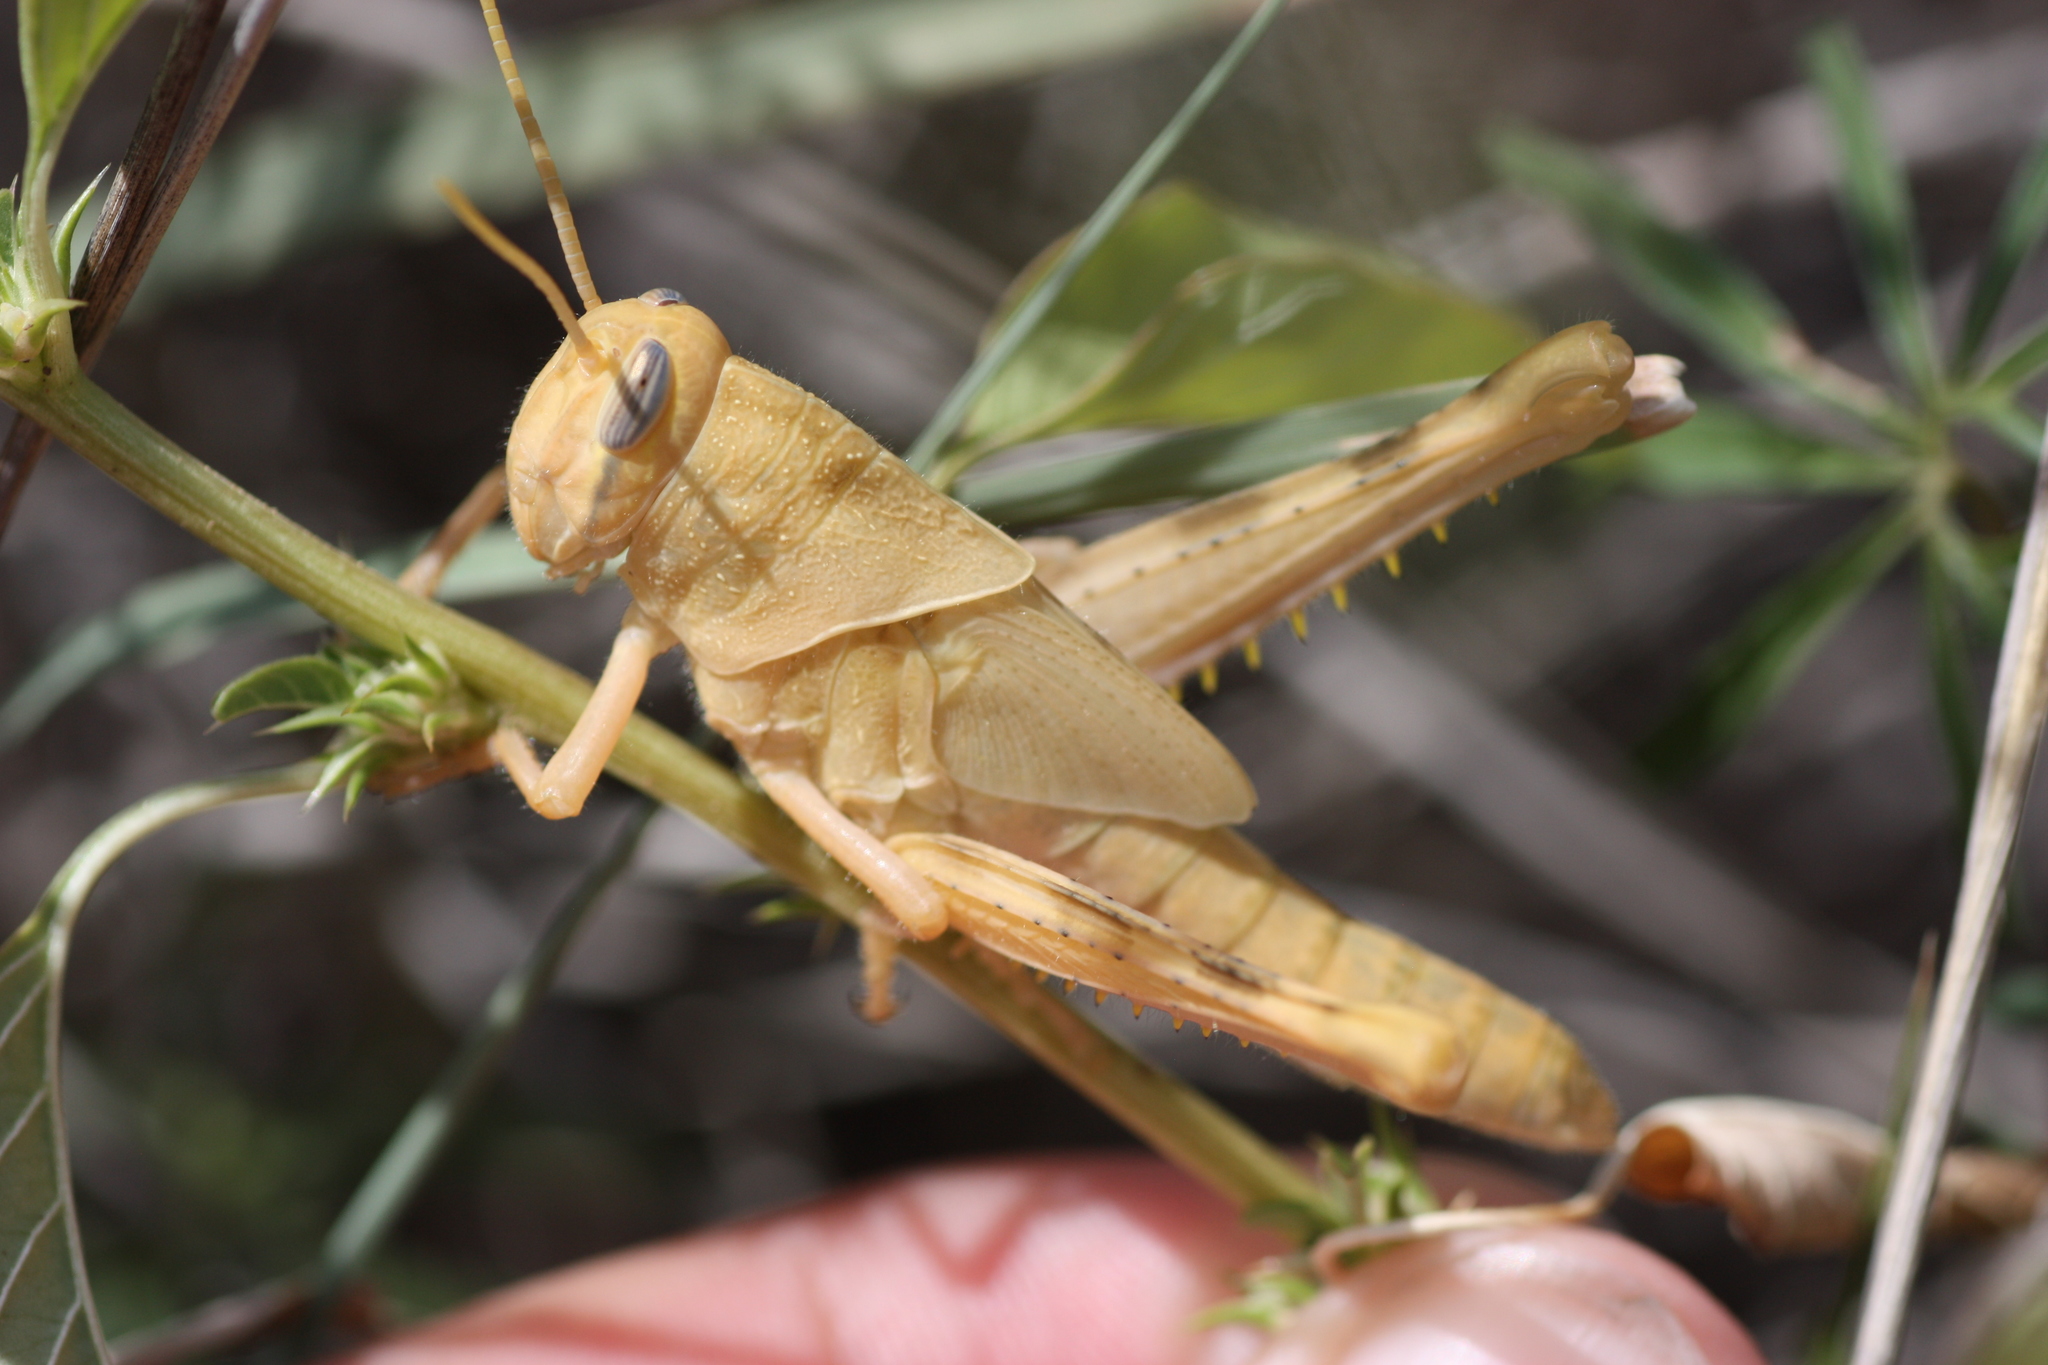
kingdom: Animalia
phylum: Arthropoda
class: Insecta
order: Orthoptera
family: Acrididae
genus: Schistocerca
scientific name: Schistocerca nitens
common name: Vagrant grasshopper
